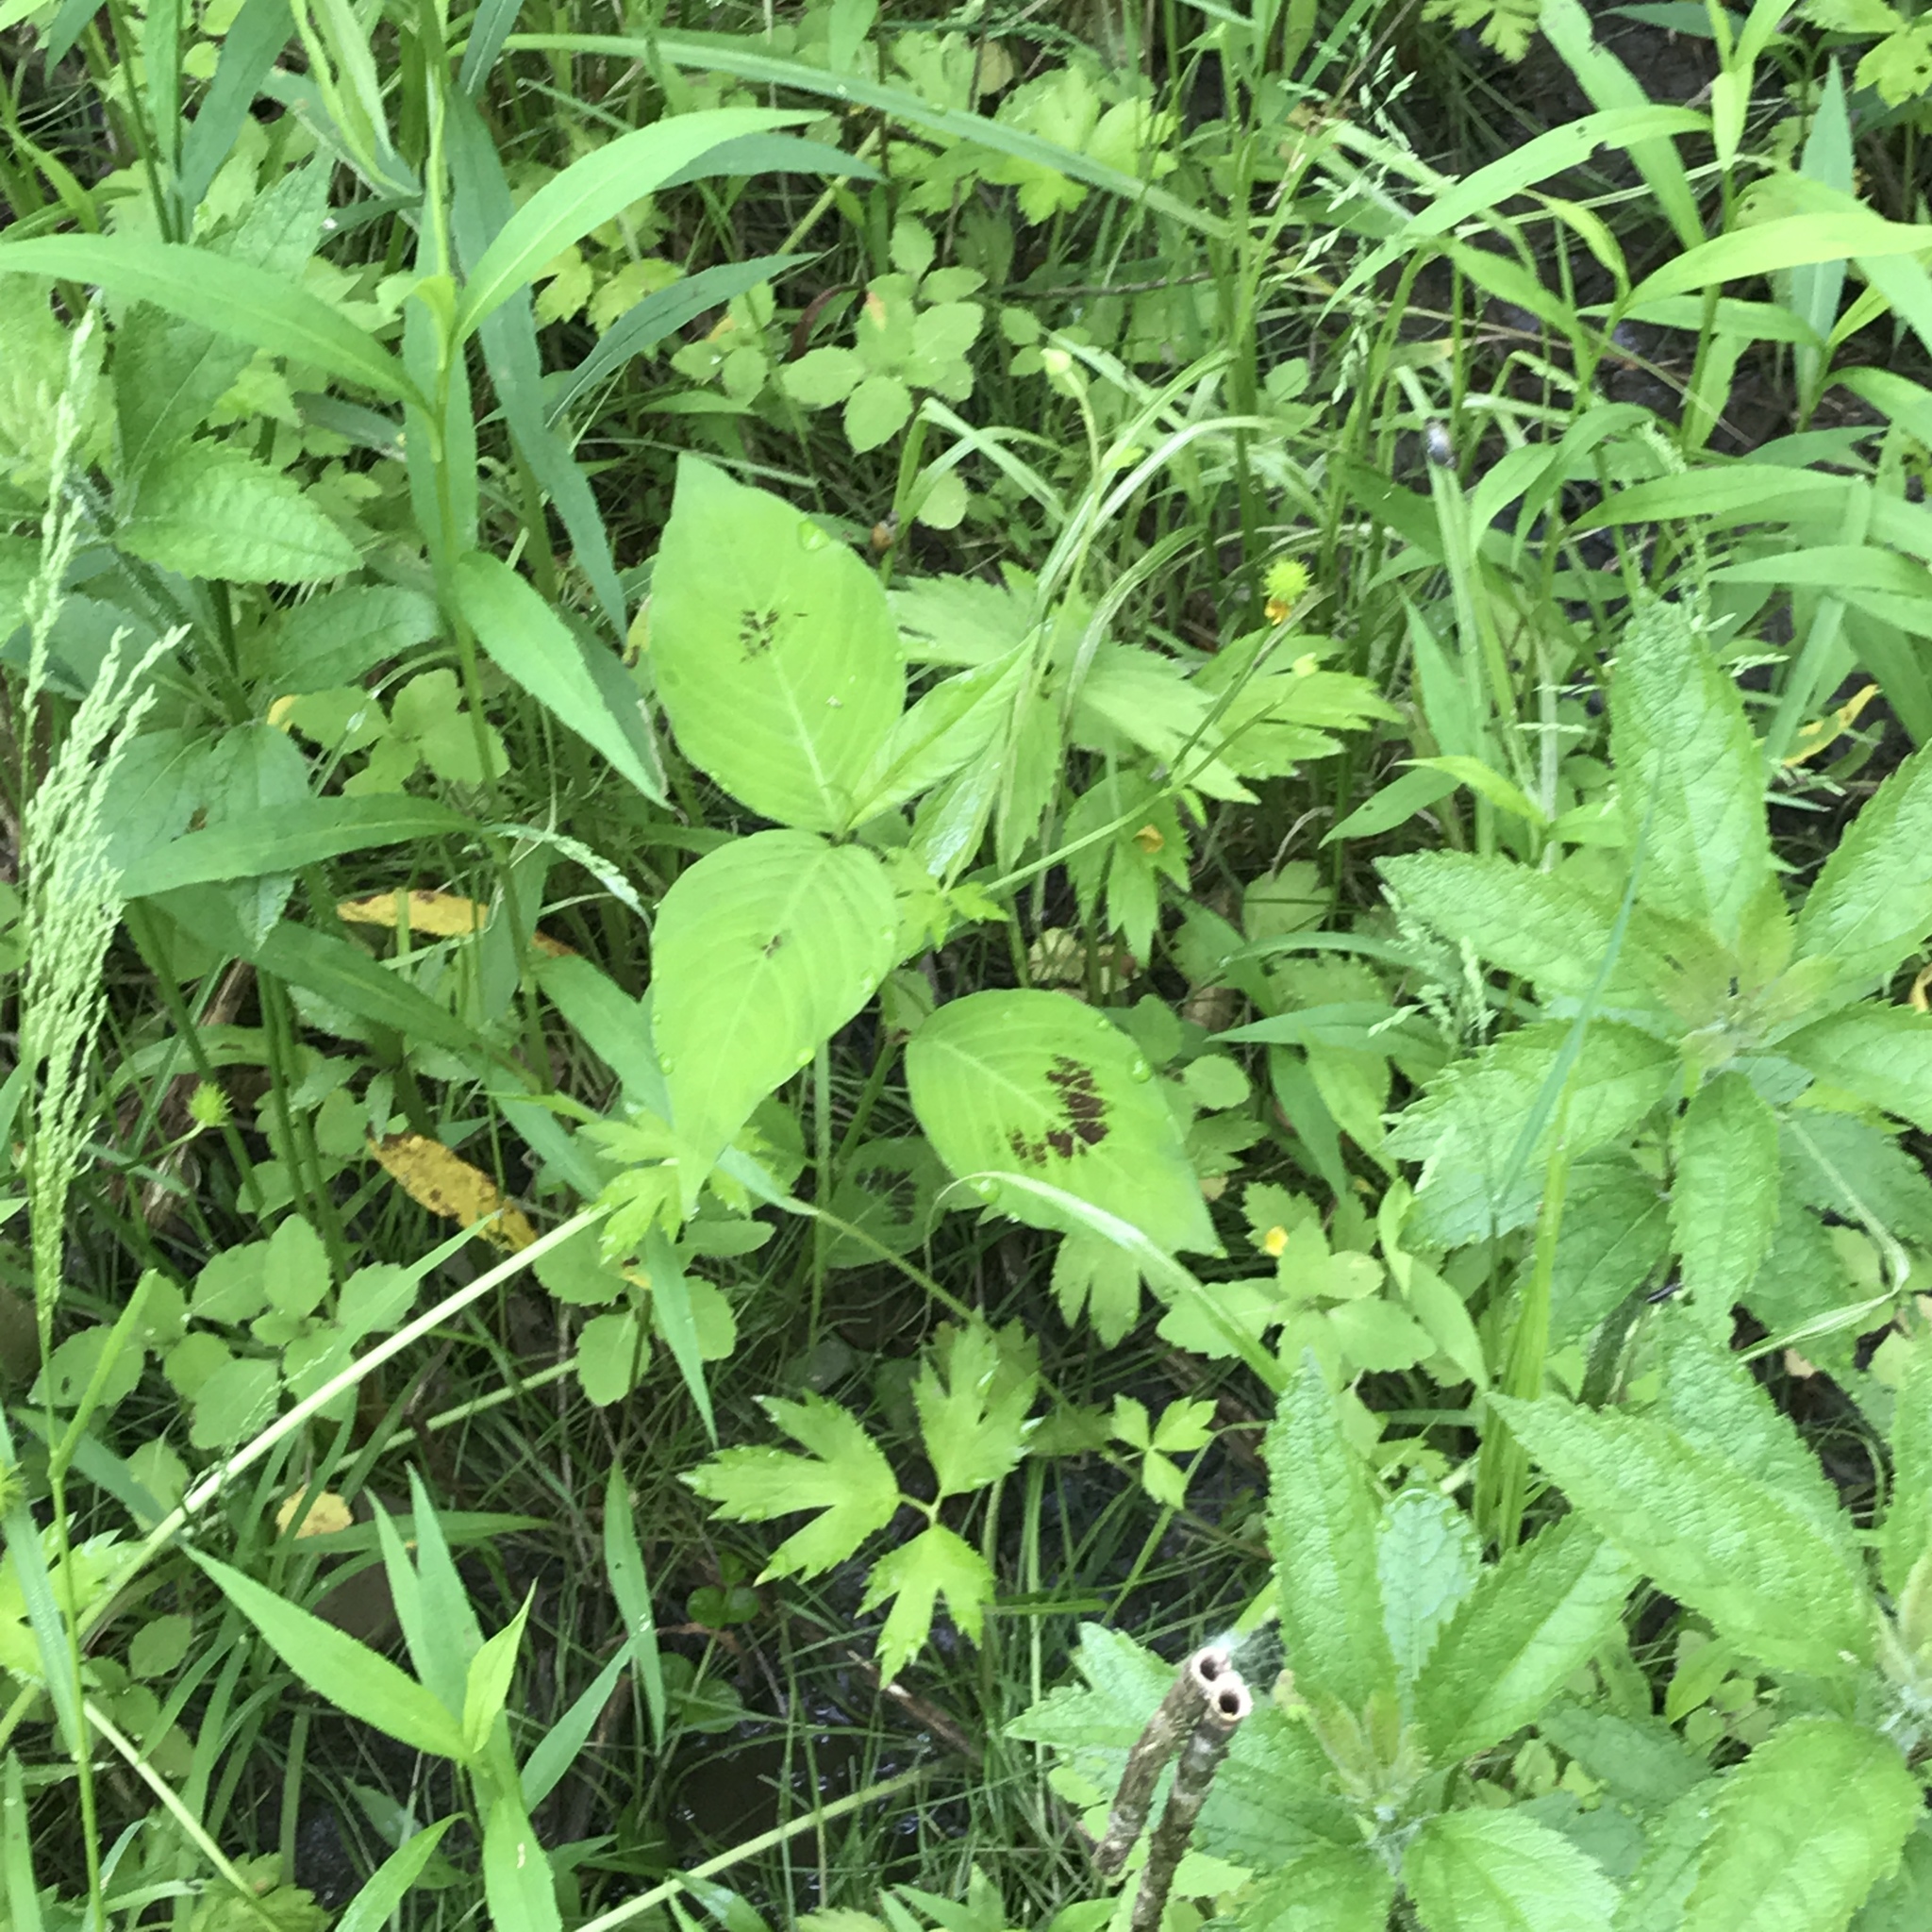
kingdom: Plantae
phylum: Tracheophyta
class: Magnoliopsida
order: Caryophyllales
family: Polygonaceae
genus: Persicaria
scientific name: Persicaria virginiana
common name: Jumpseed
